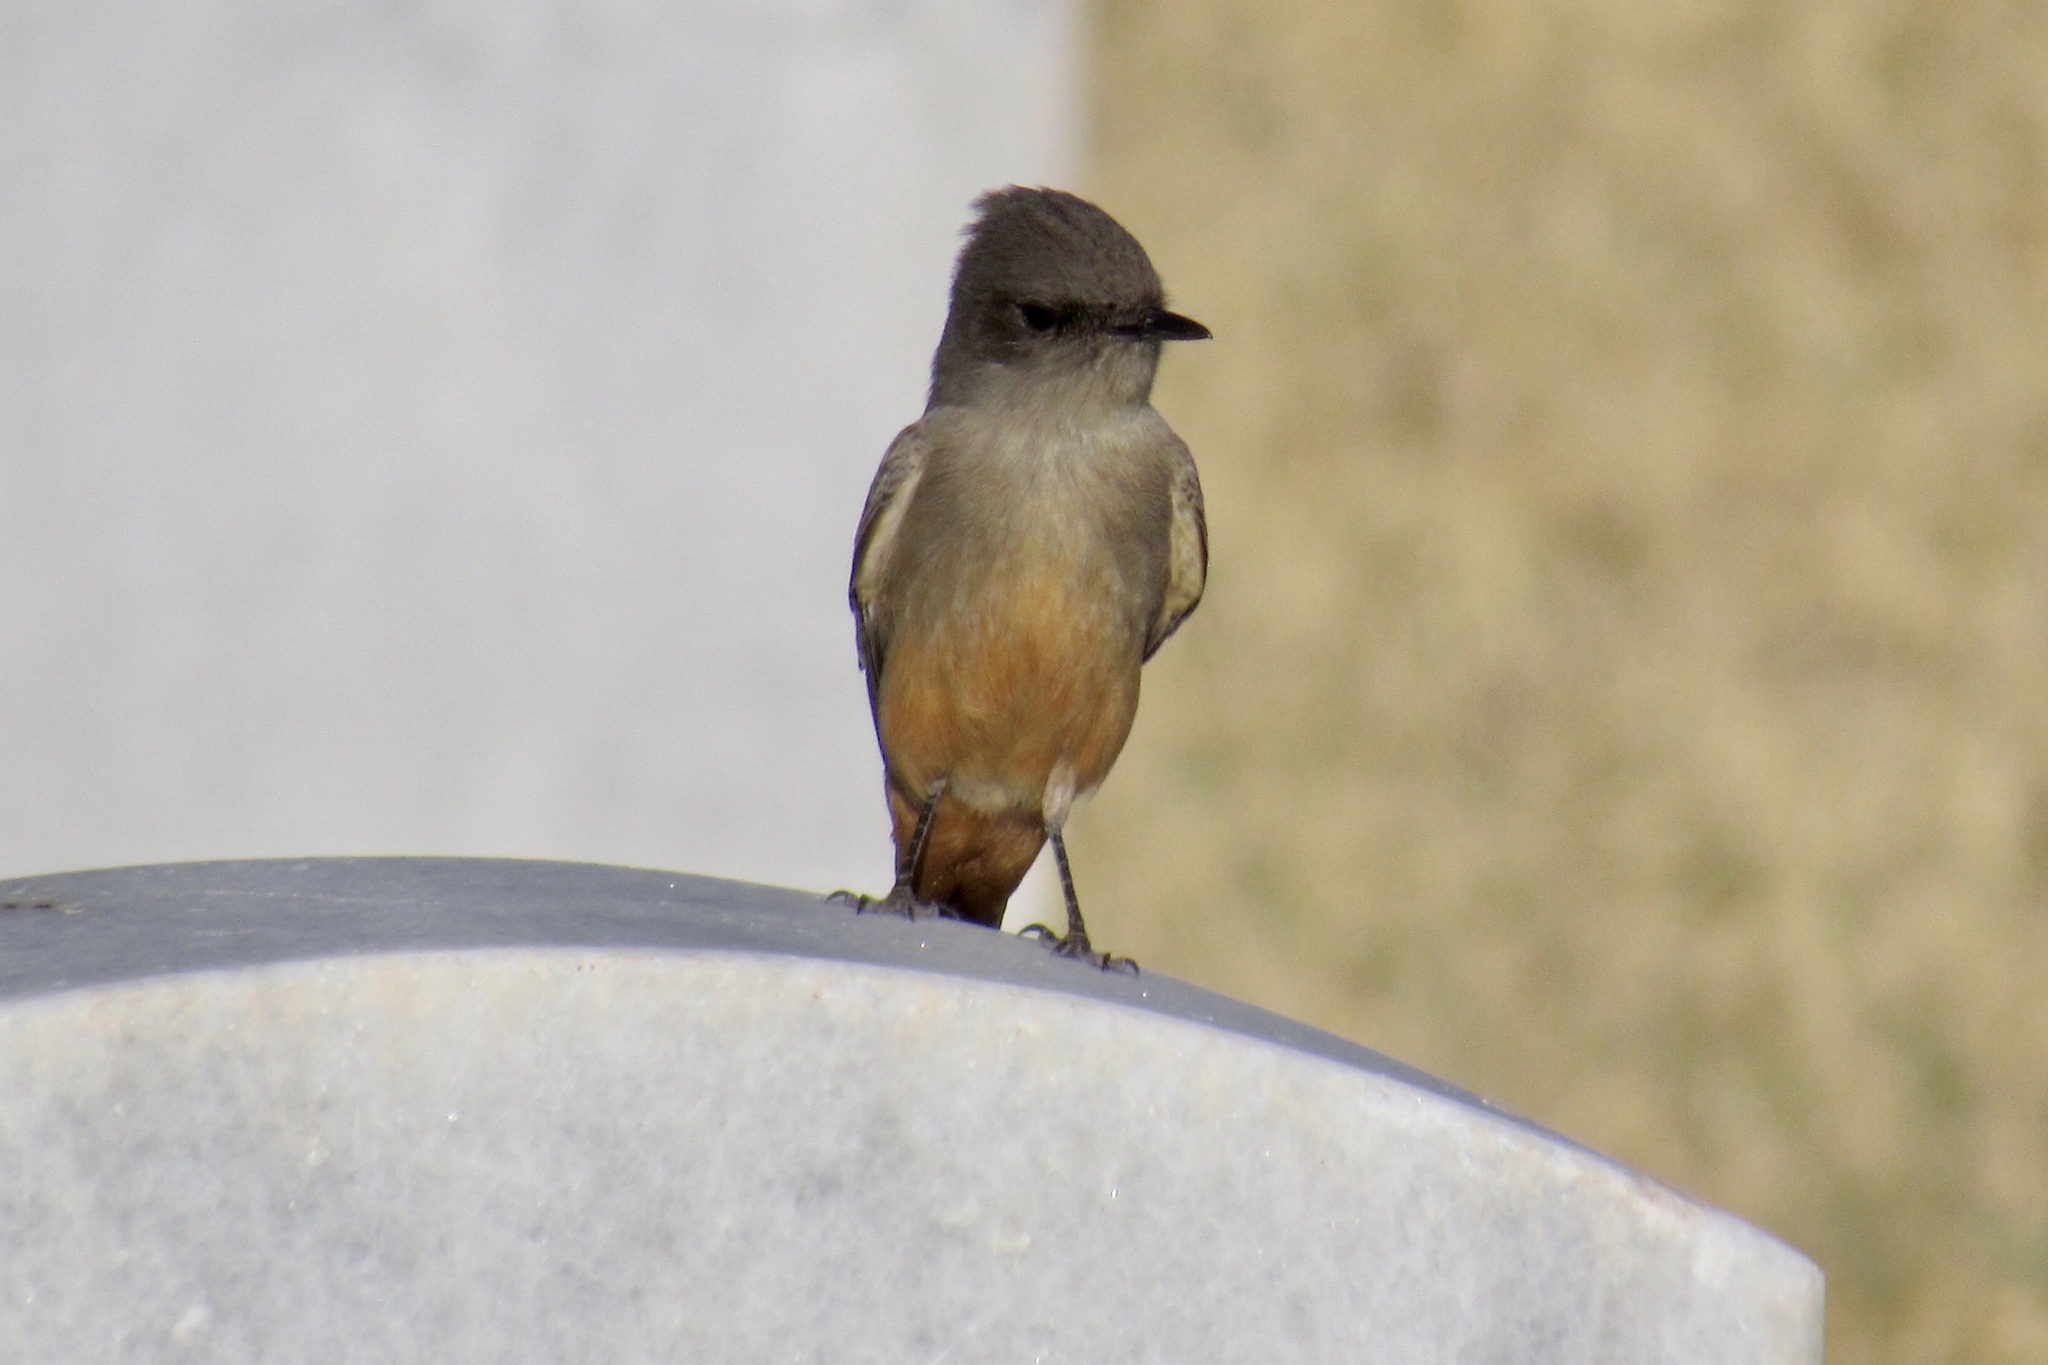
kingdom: Animalia
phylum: Chordata
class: Aves
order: Passeriformes
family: Tyrannidae
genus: Sayornis
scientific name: Sayornis saya
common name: Say's phoebe
